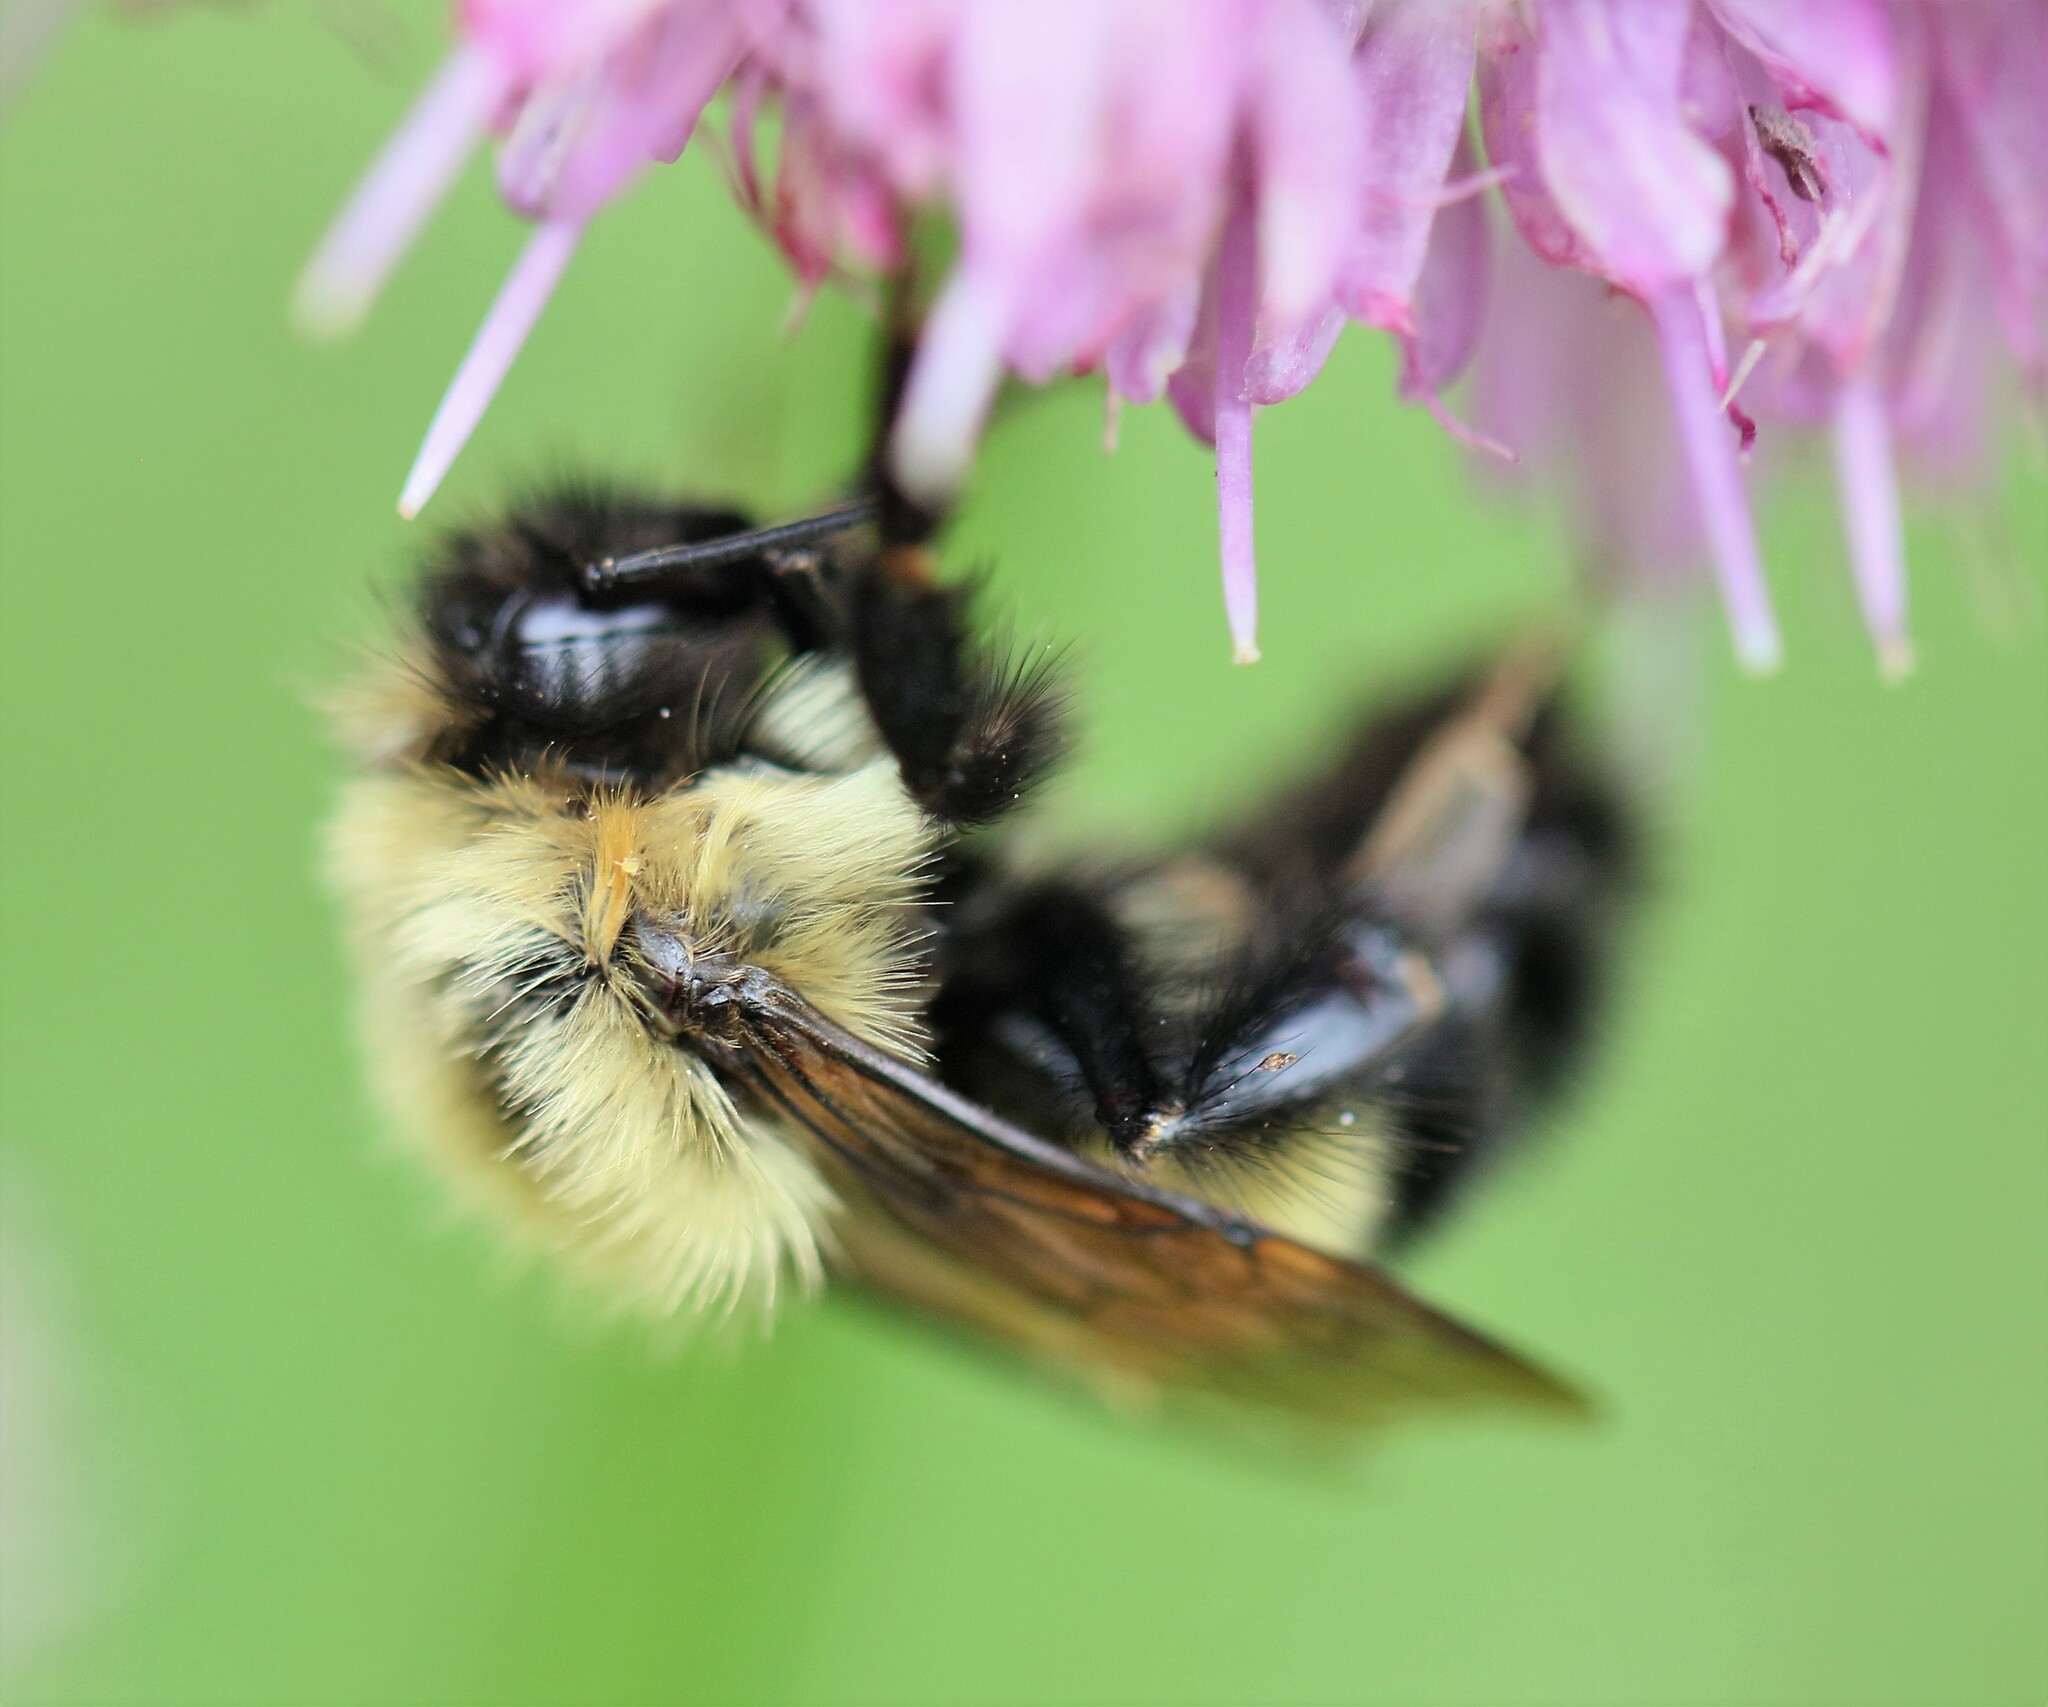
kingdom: Animalia
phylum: Arthropoda
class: Insecta
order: Hymenoptera
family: Apidae
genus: Pyrobombus
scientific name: Pyrobombus
